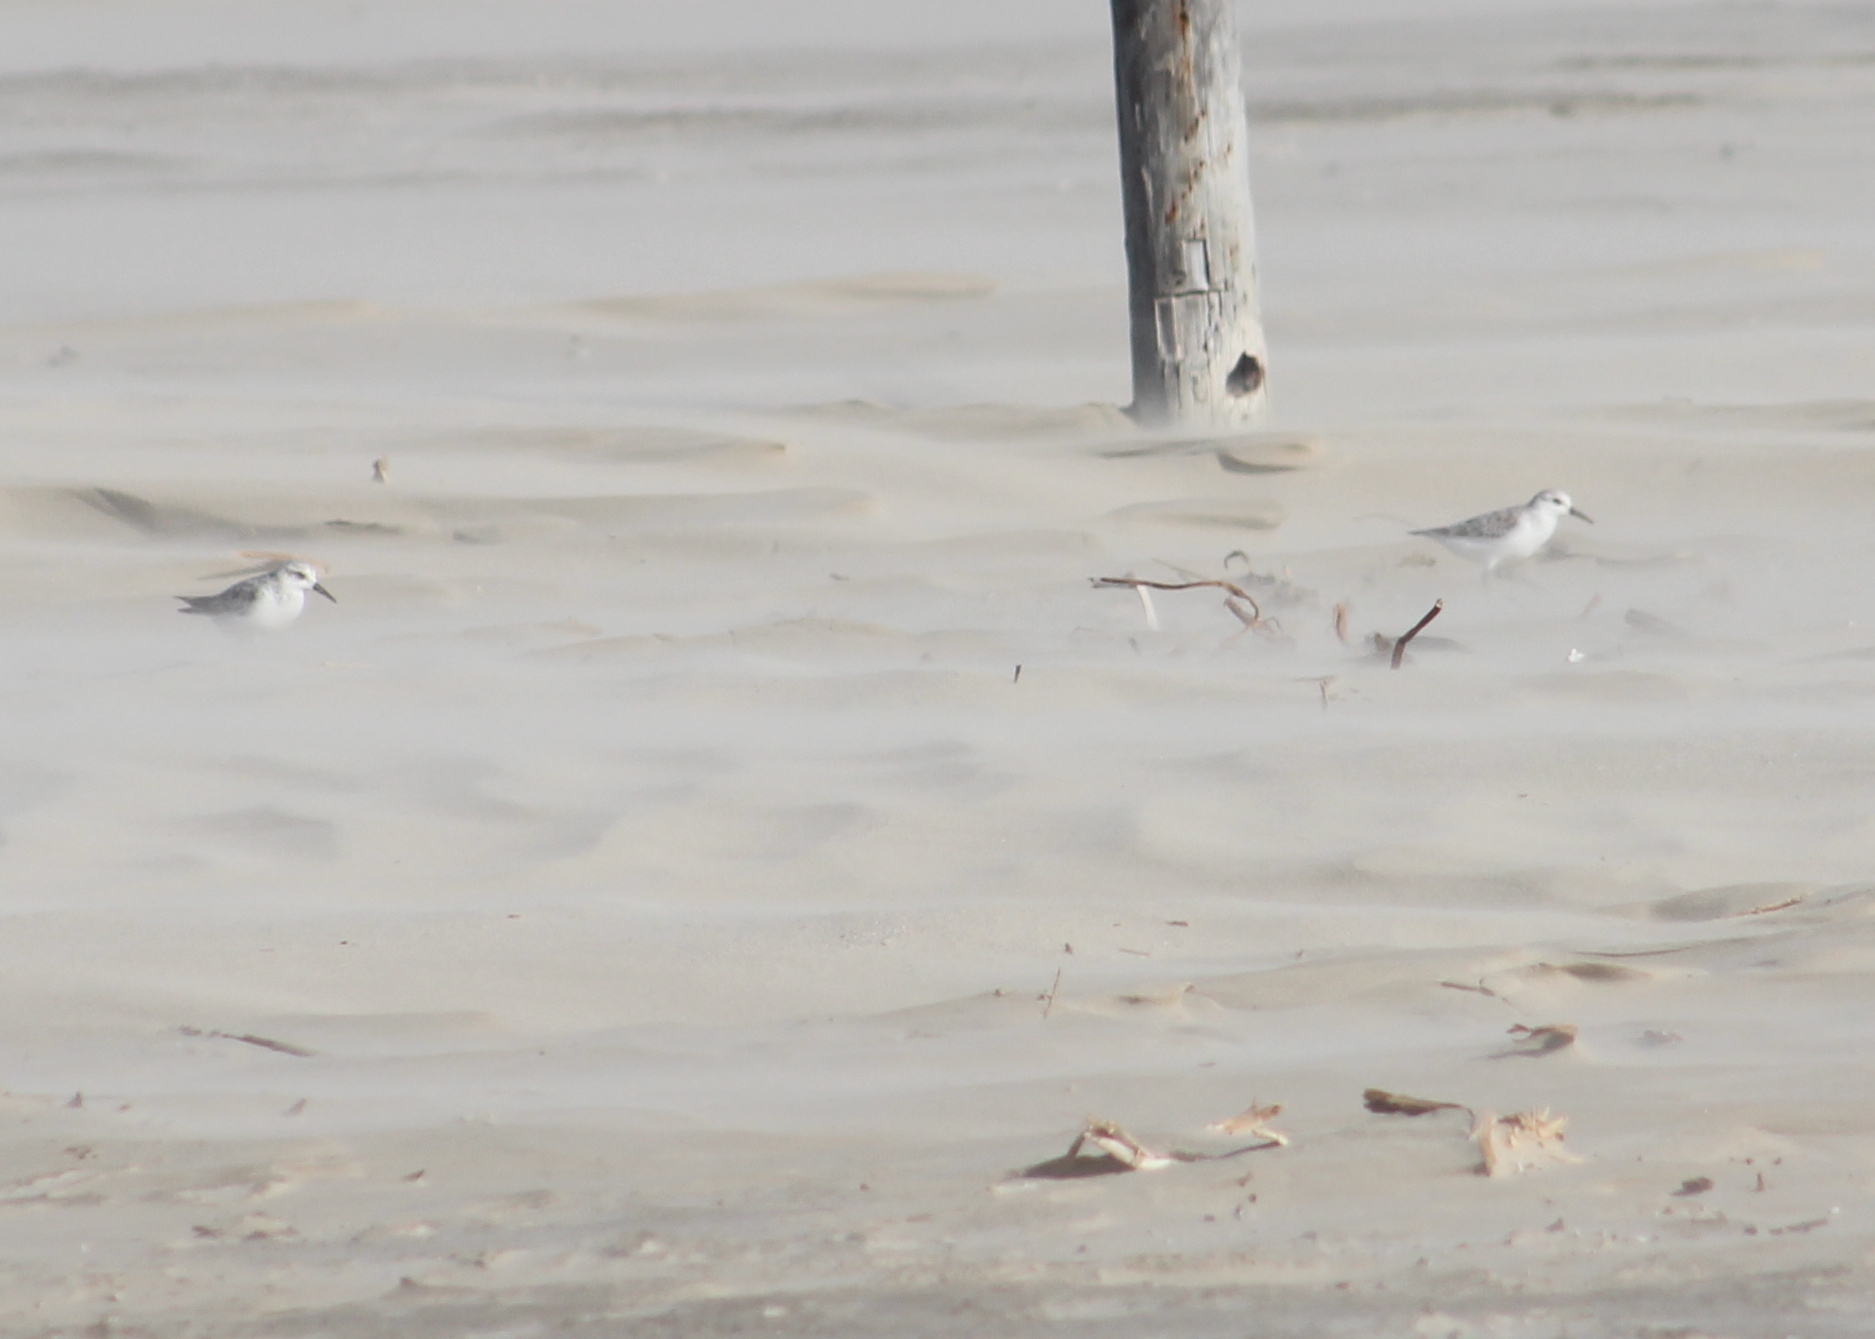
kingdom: Animalia
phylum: Chordata
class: Aves
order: Charadriiformes
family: Scolopacidae
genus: Calidris
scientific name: Calidris alba
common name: Sanderling
